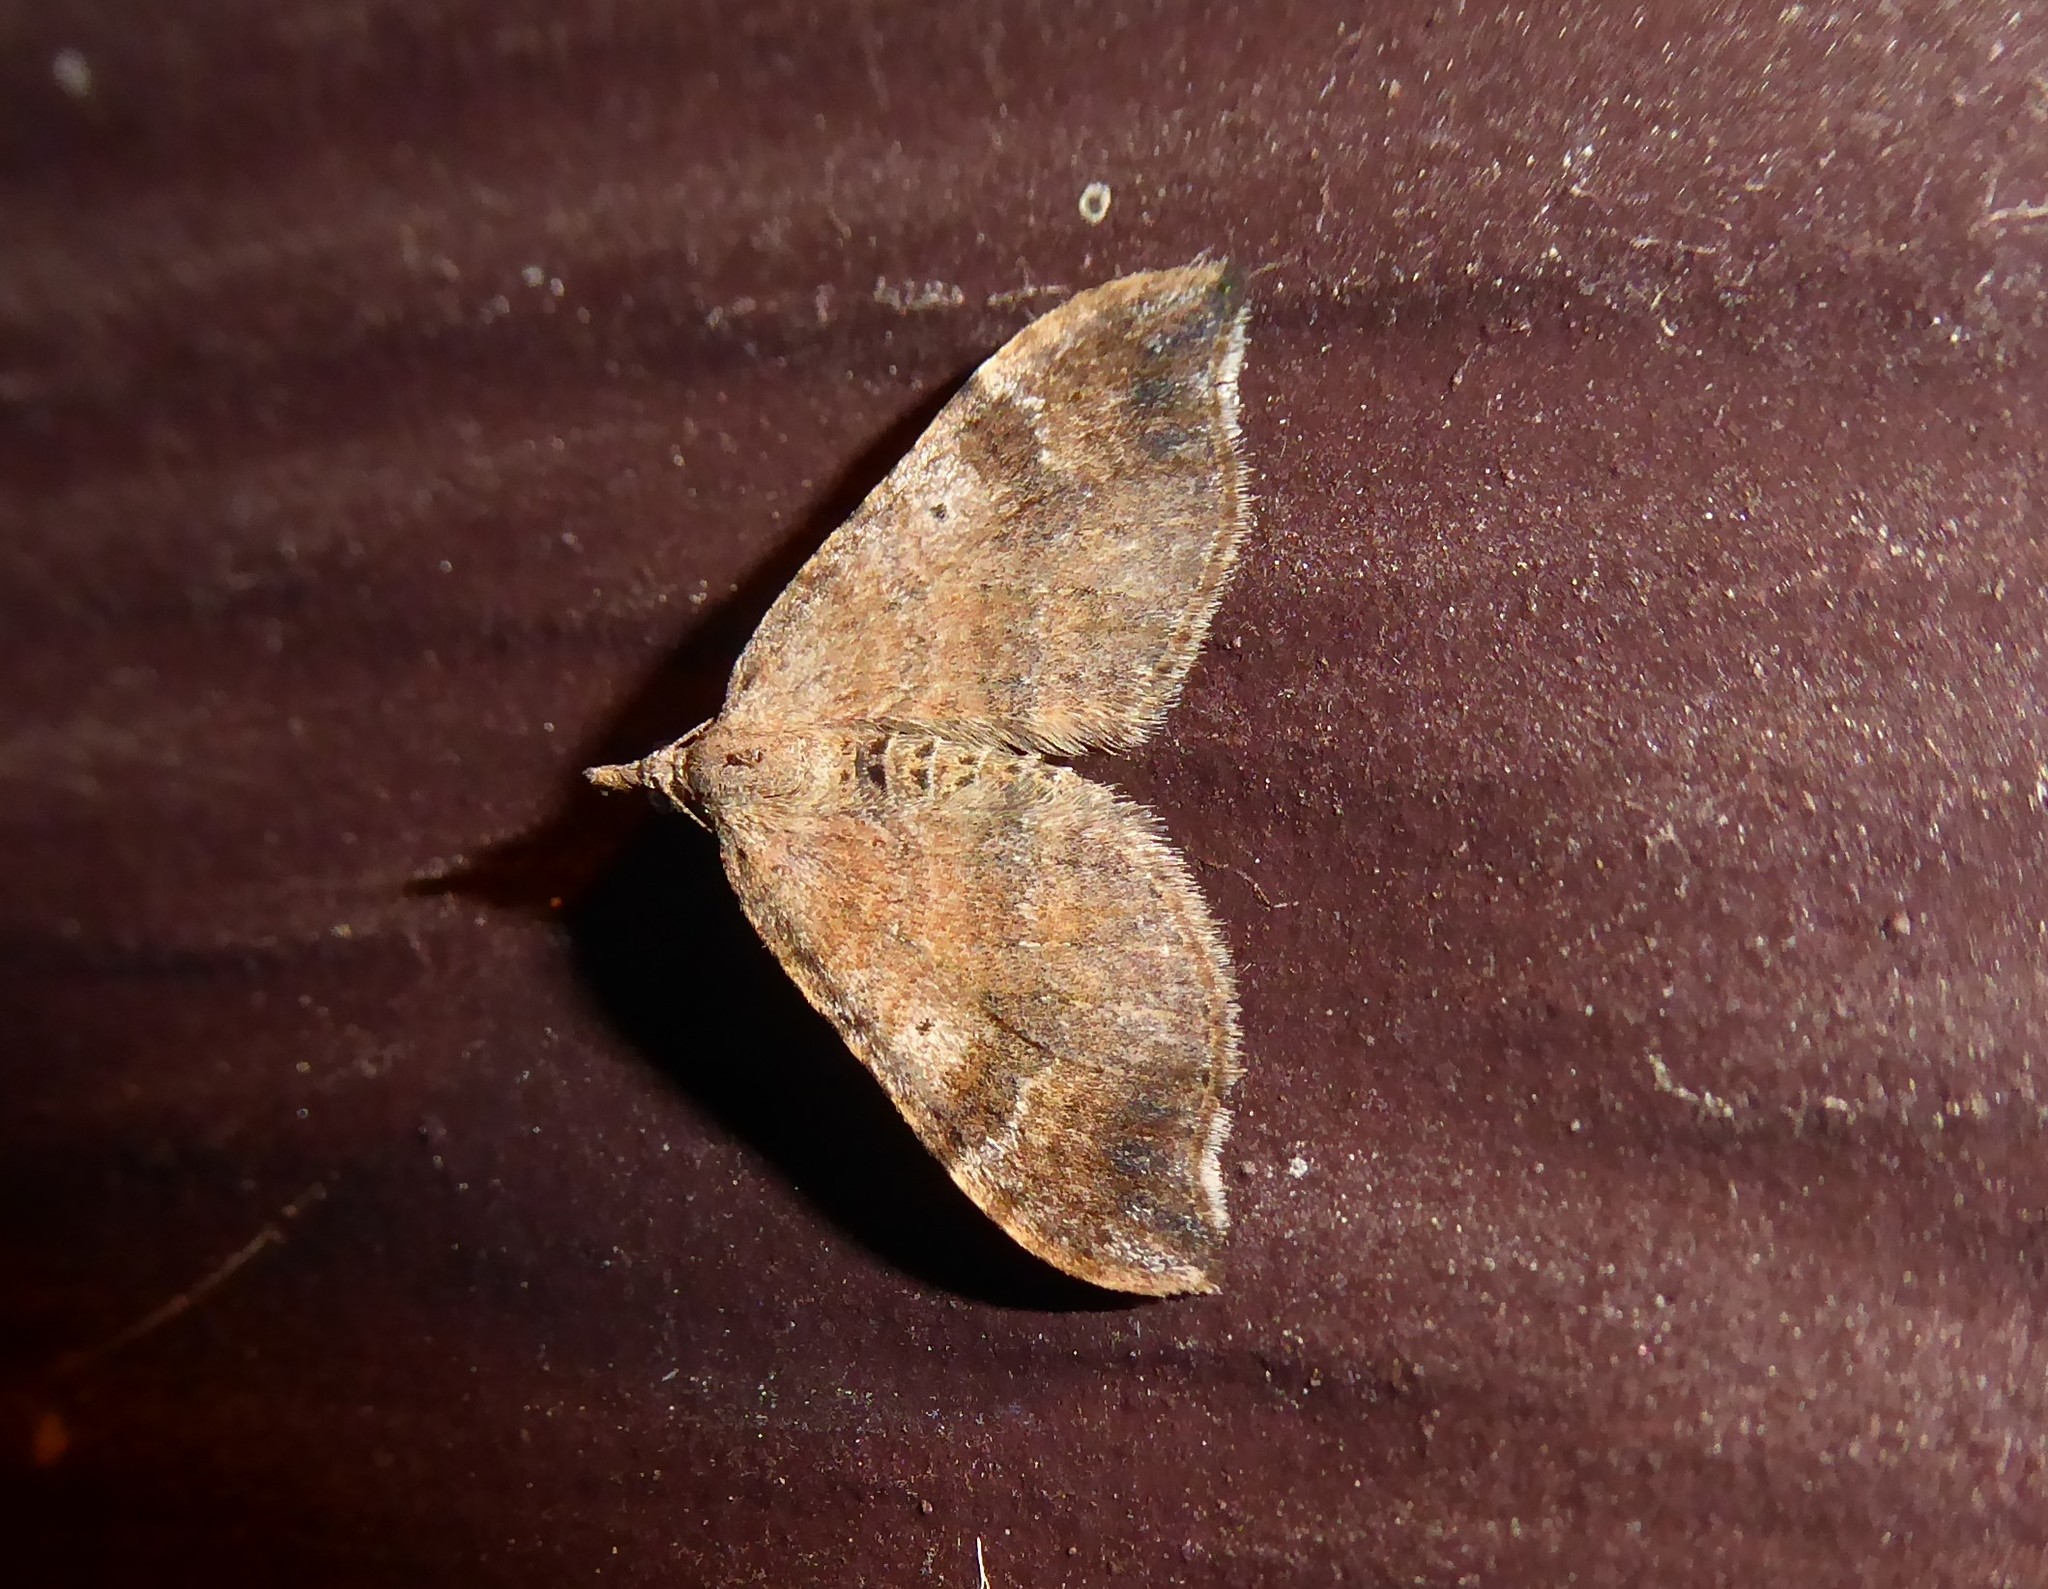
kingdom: Animalia
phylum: Arthropoda
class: Insecta
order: Lepidoptera
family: Geometridae
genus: Homodotis
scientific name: Homodotis megaspilata
